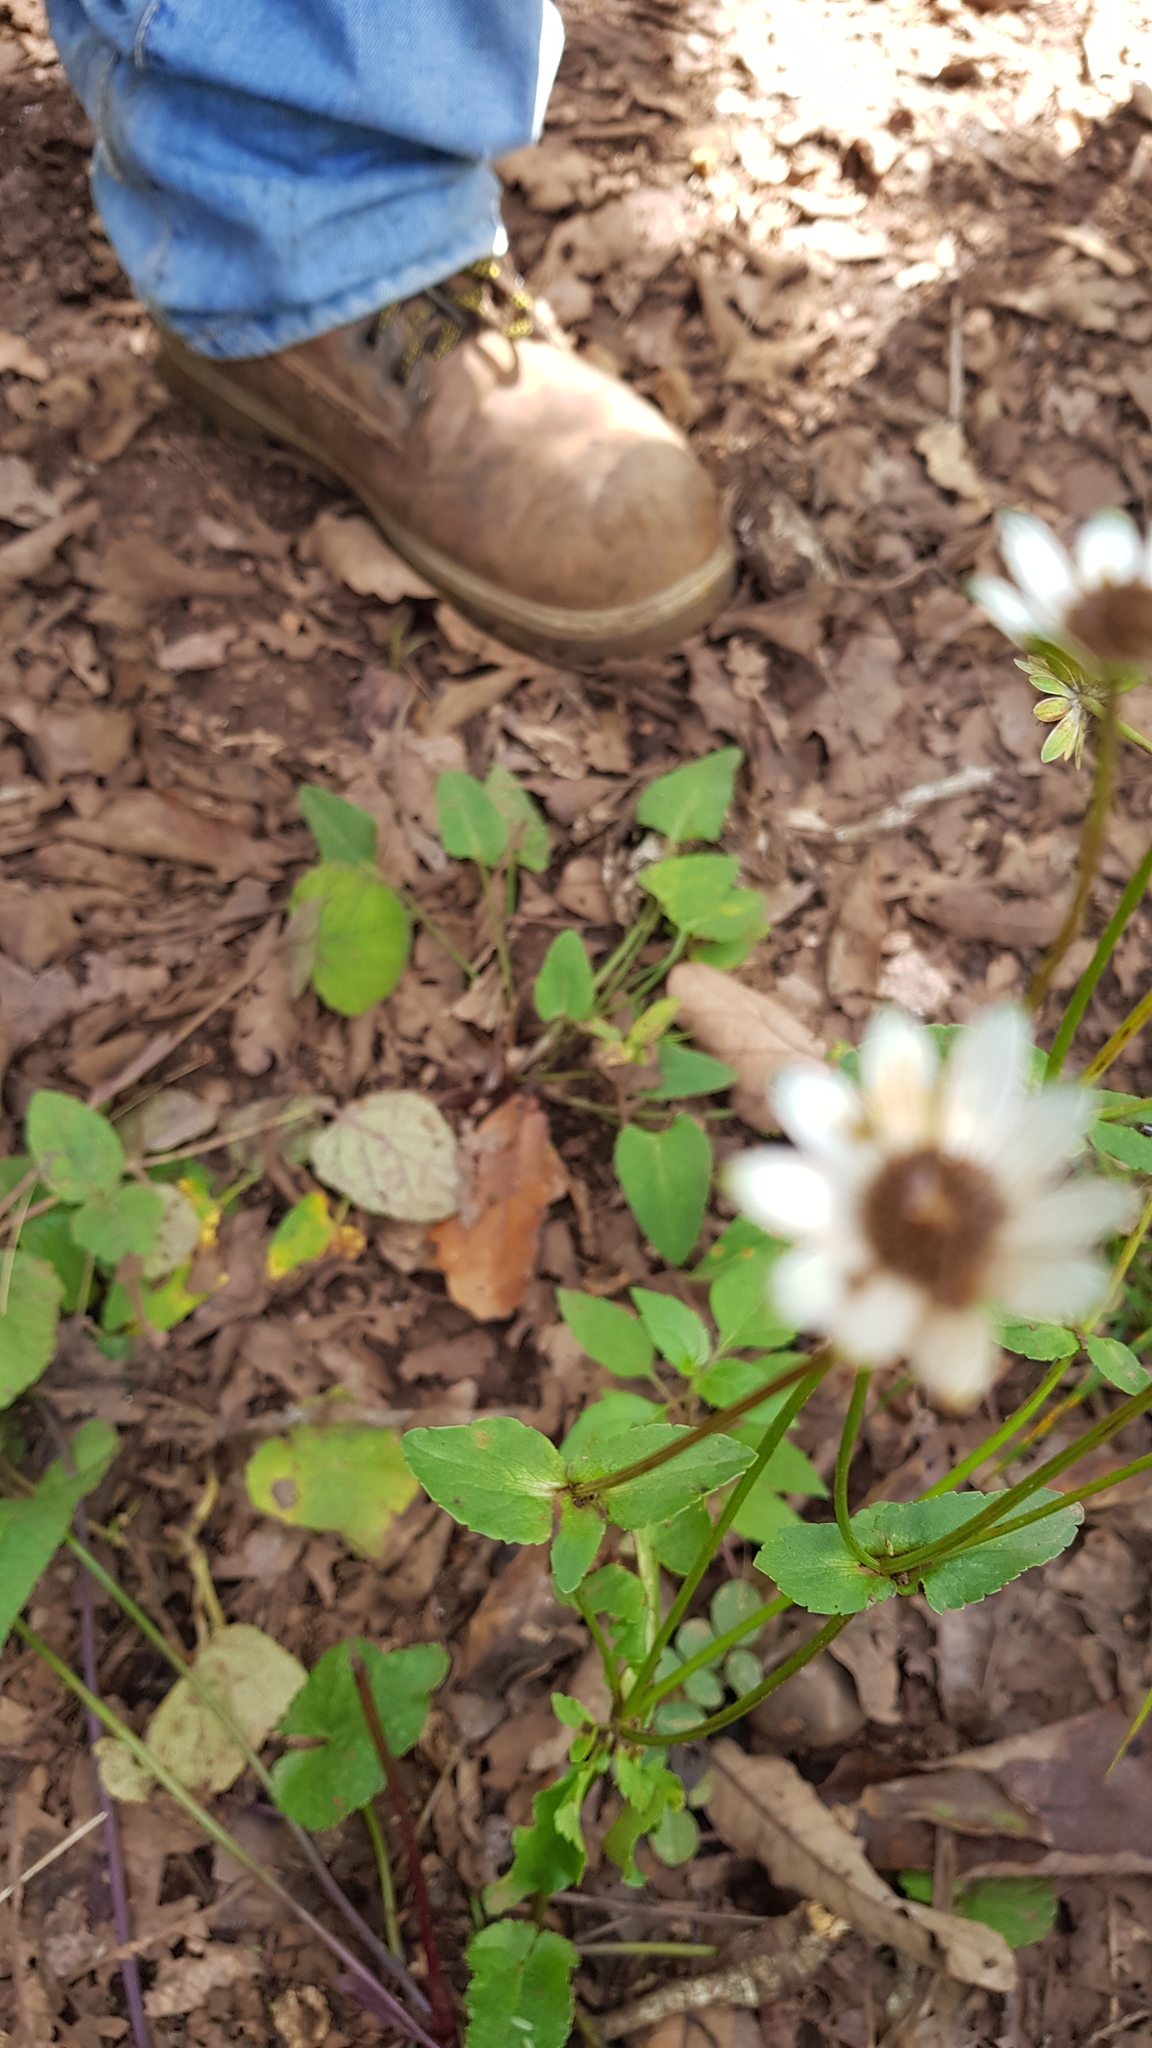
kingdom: Plantae
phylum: Tracheophyta
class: Magnoliopsida
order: Apiales
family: Apiaceae
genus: Eryngium
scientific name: Eryngium scaposum
